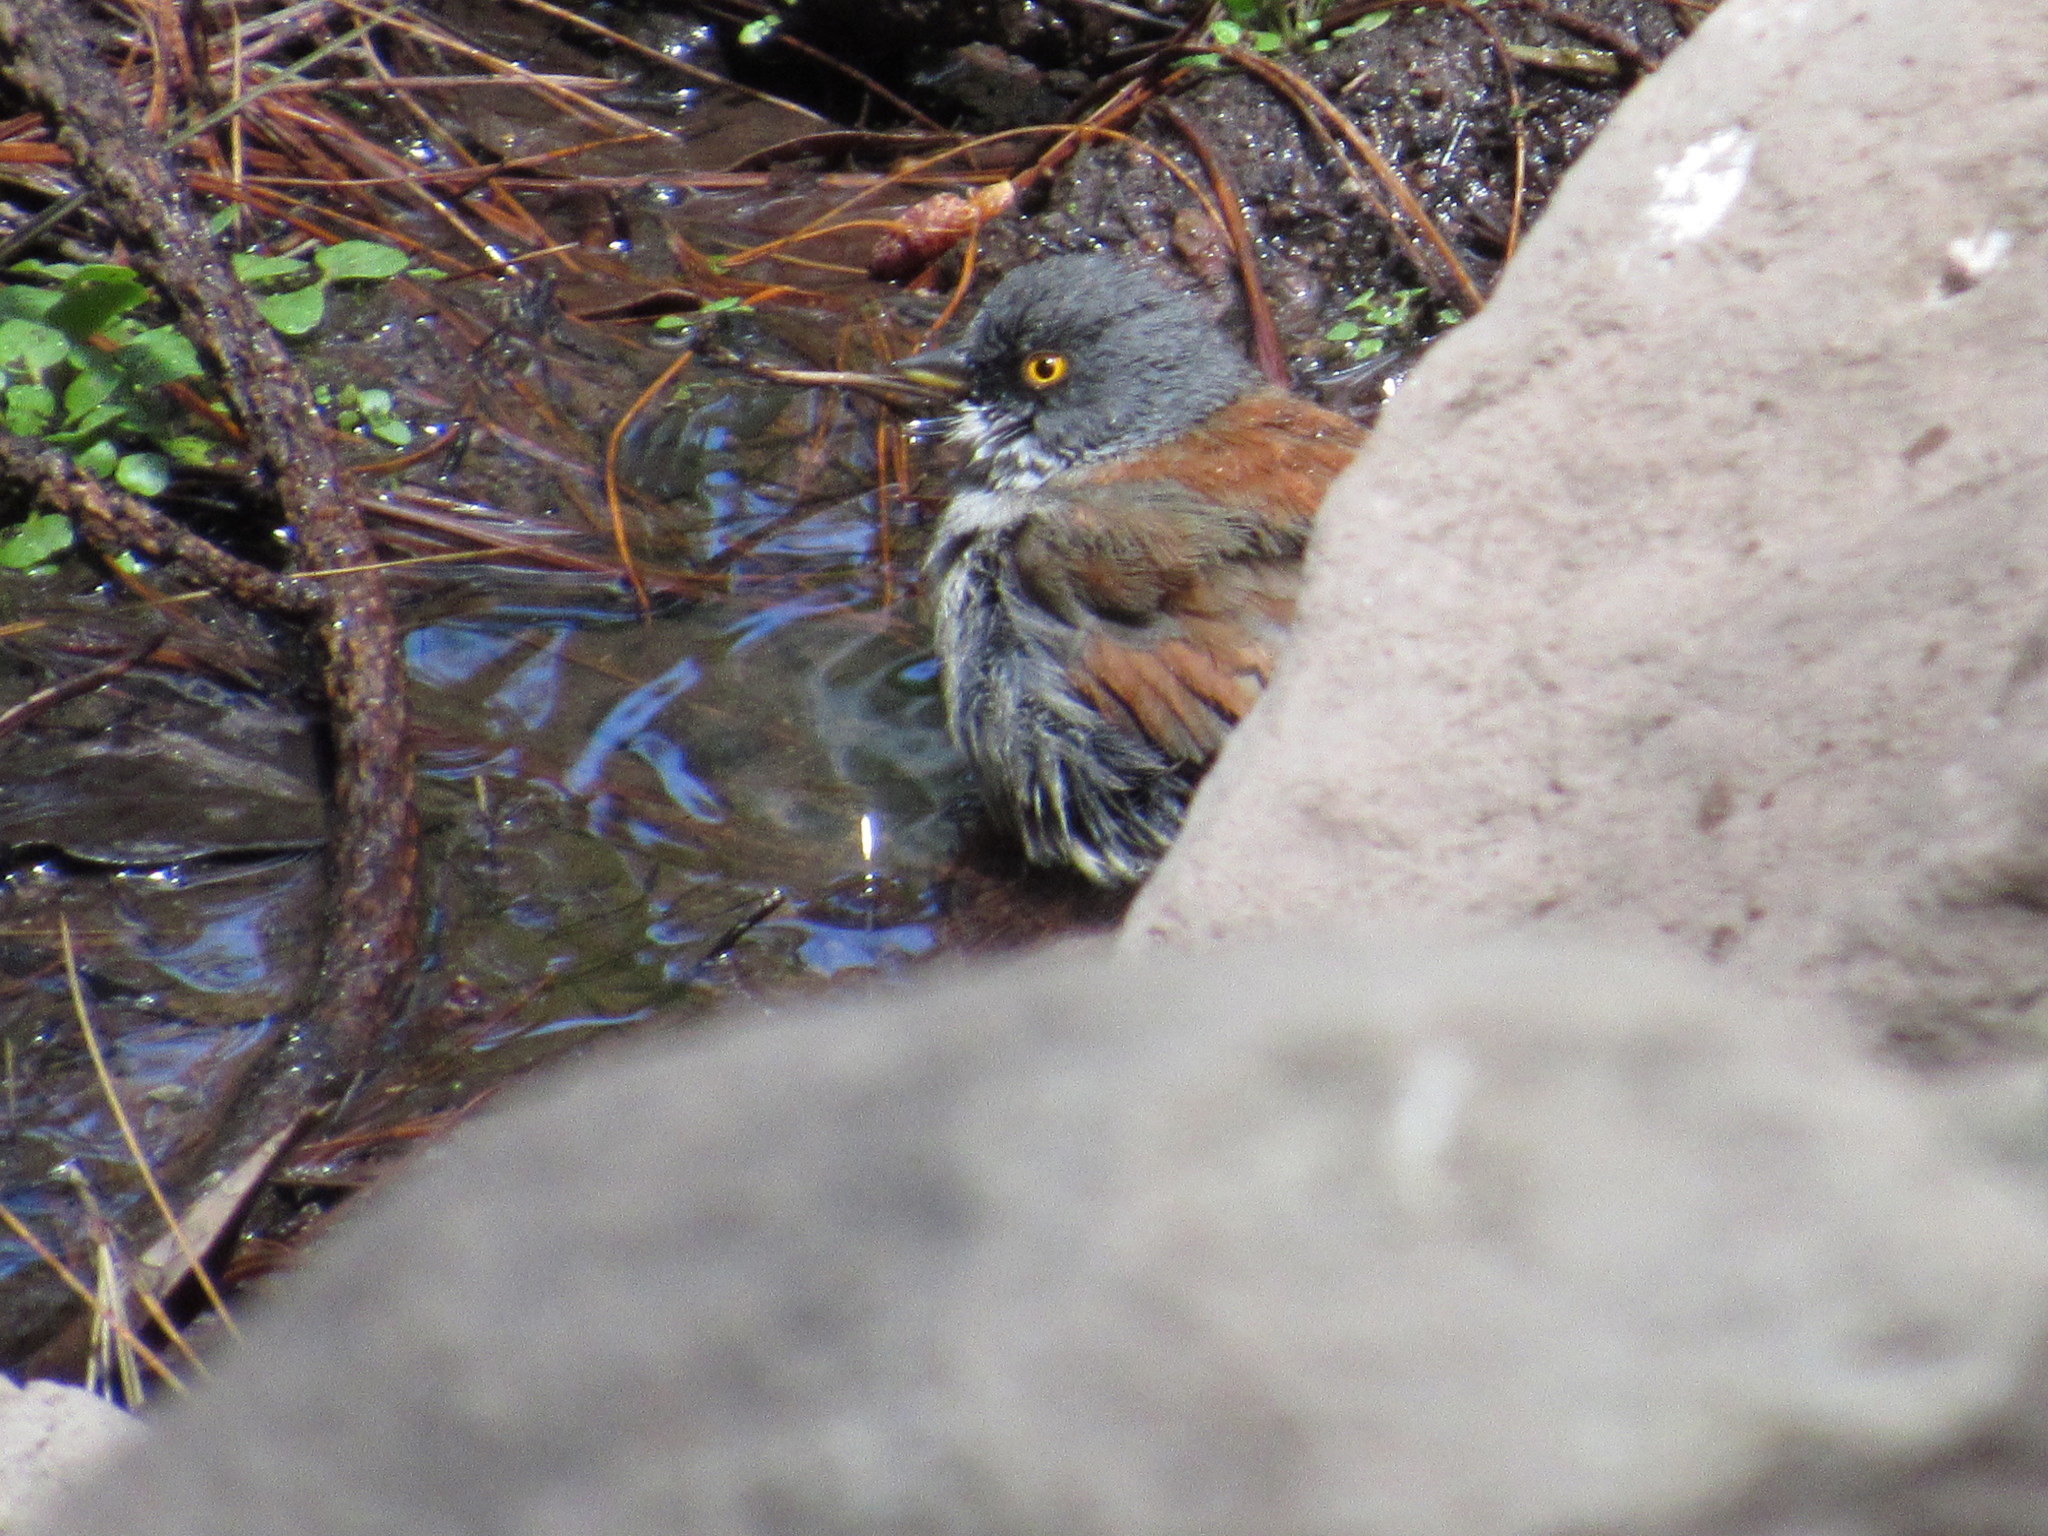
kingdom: Animalia
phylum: Chordata
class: Aves
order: Passeriformes
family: Passerellidae
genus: Junco
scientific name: Junco phaeonotus
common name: Yellow-eyed junco
